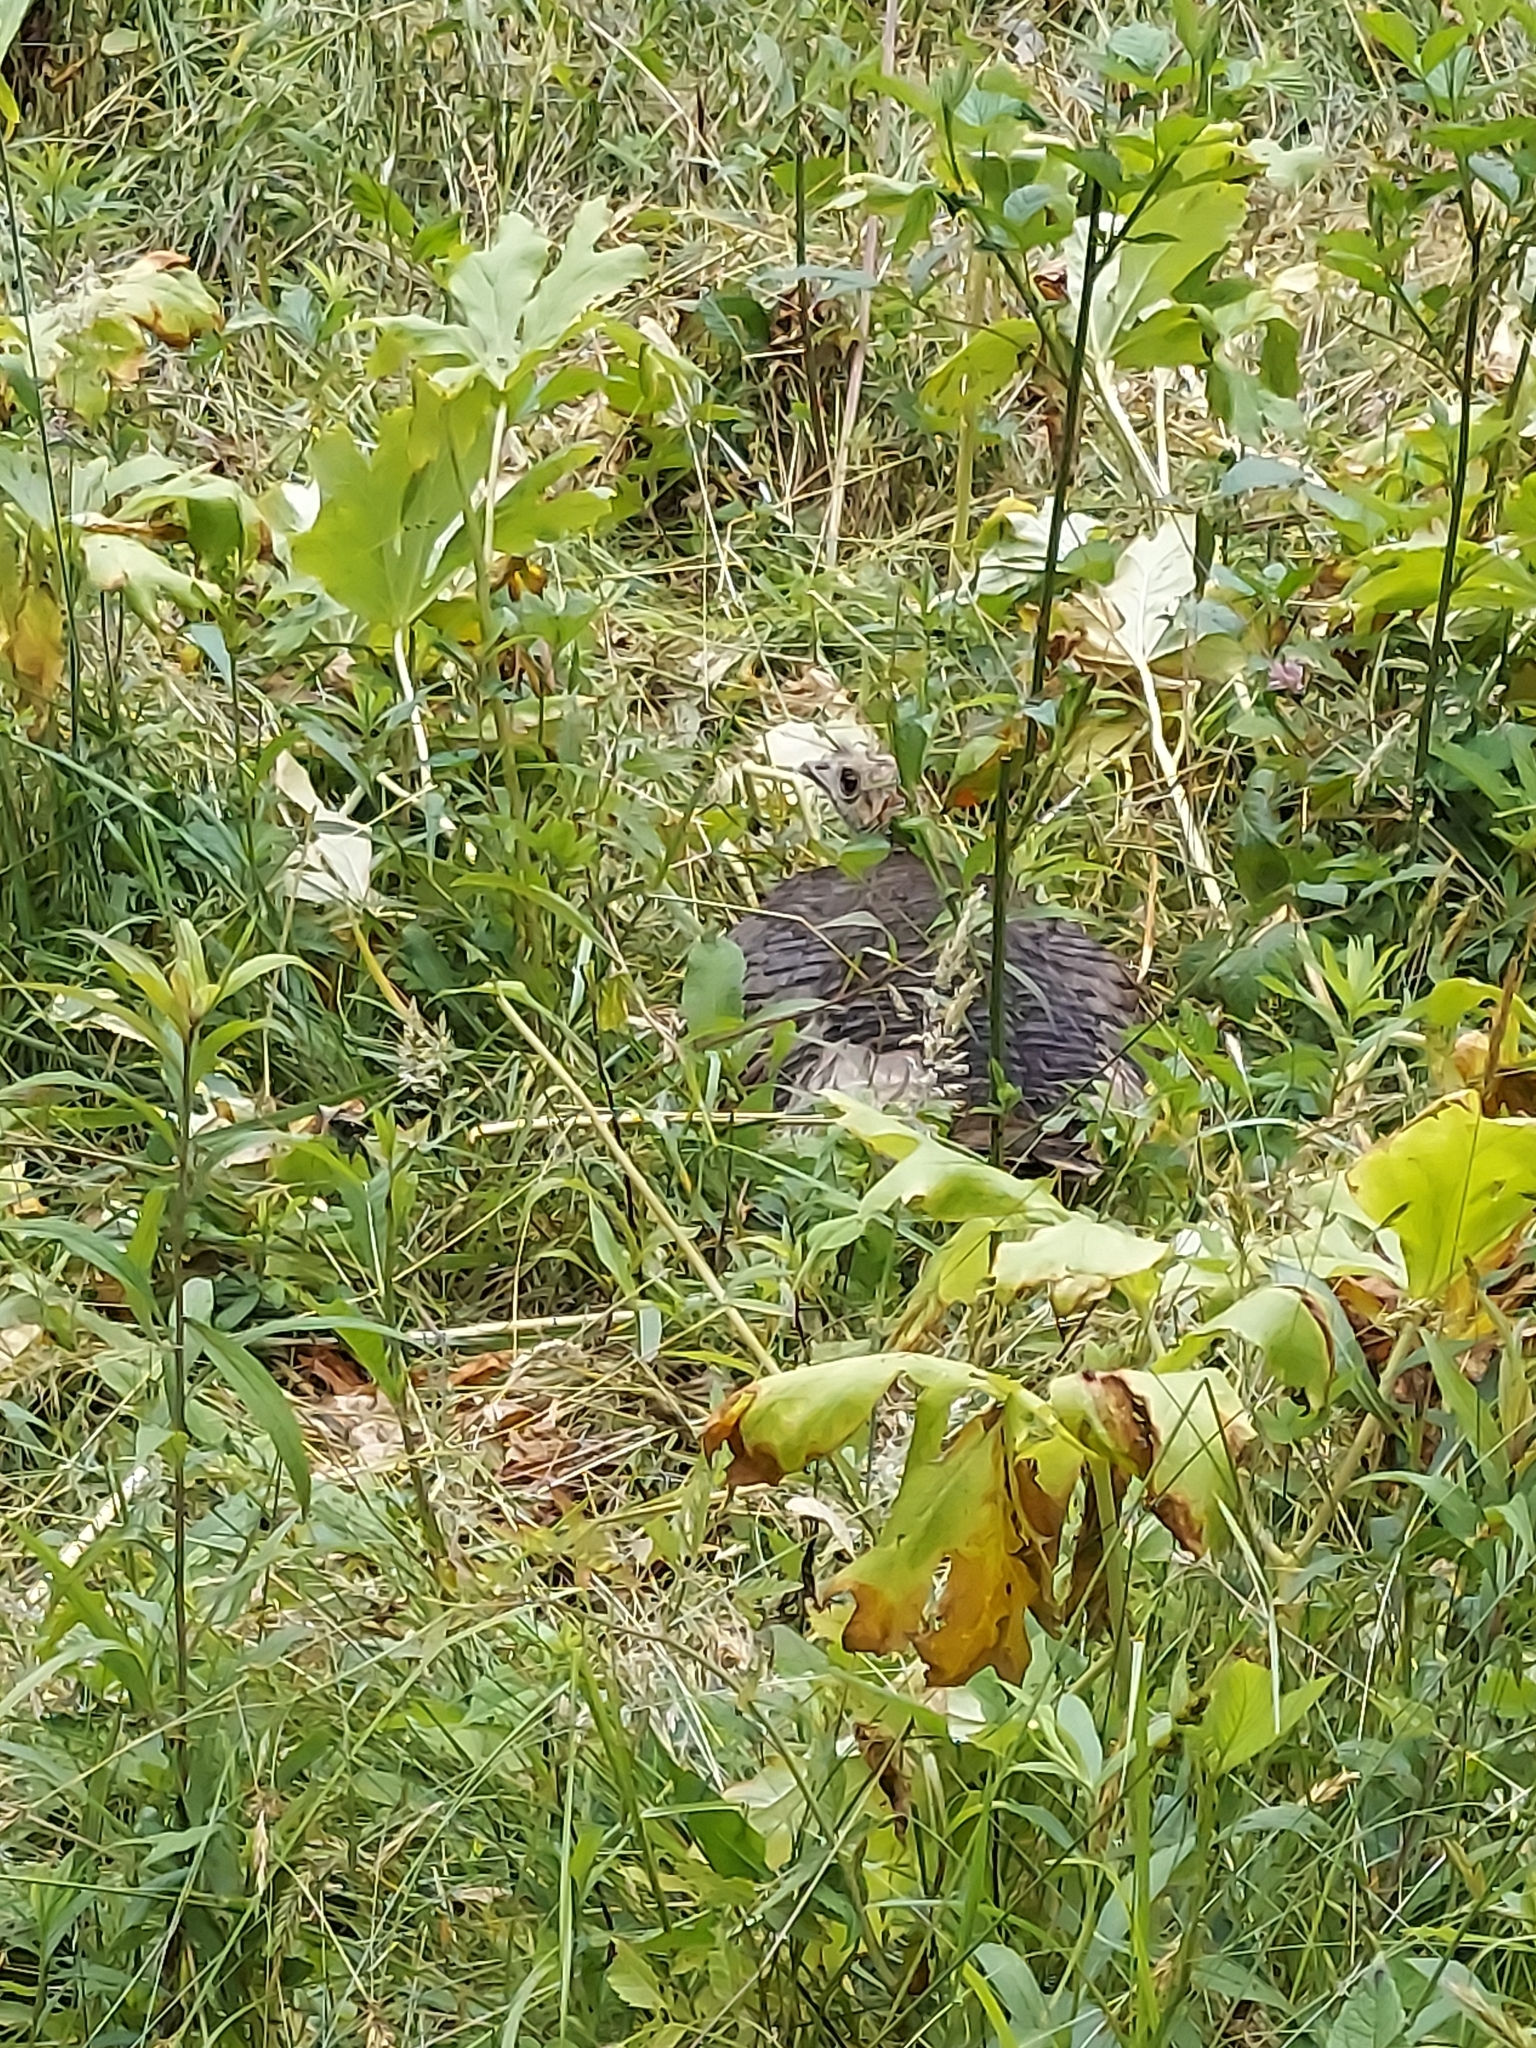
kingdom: Animalia
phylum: Chordata
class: Aves
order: Galliformes
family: Phasianidae
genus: Meleagris
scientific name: Meleagris gallopavo
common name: Wild turkey
